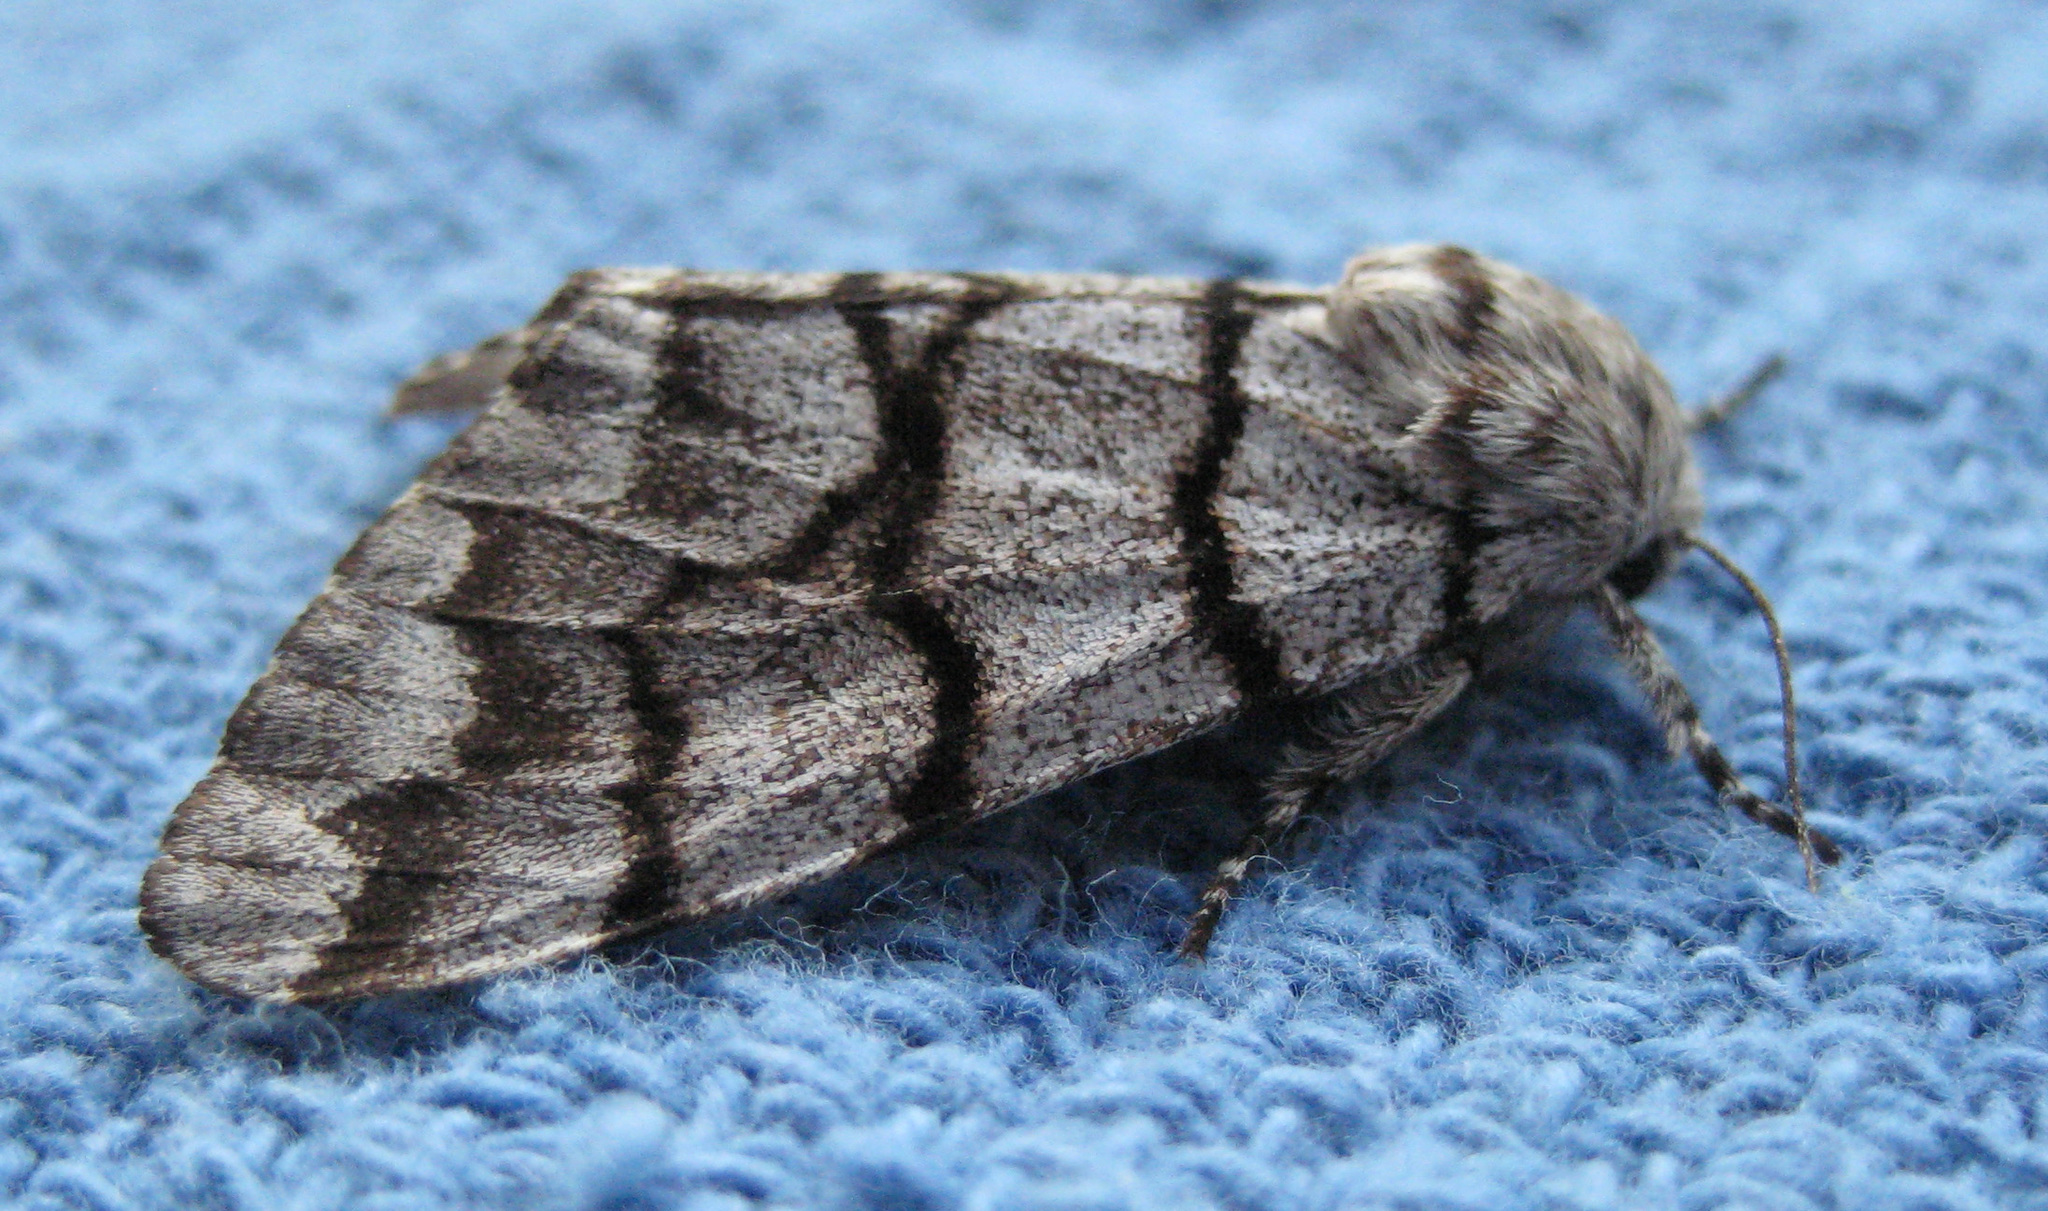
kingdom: Animalia
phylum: Arthropoda
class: Insecta
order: Lepidoptera
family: Noctuidae
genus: Panthea
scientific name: Panthea furcilla
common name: Eastern panthea moth
